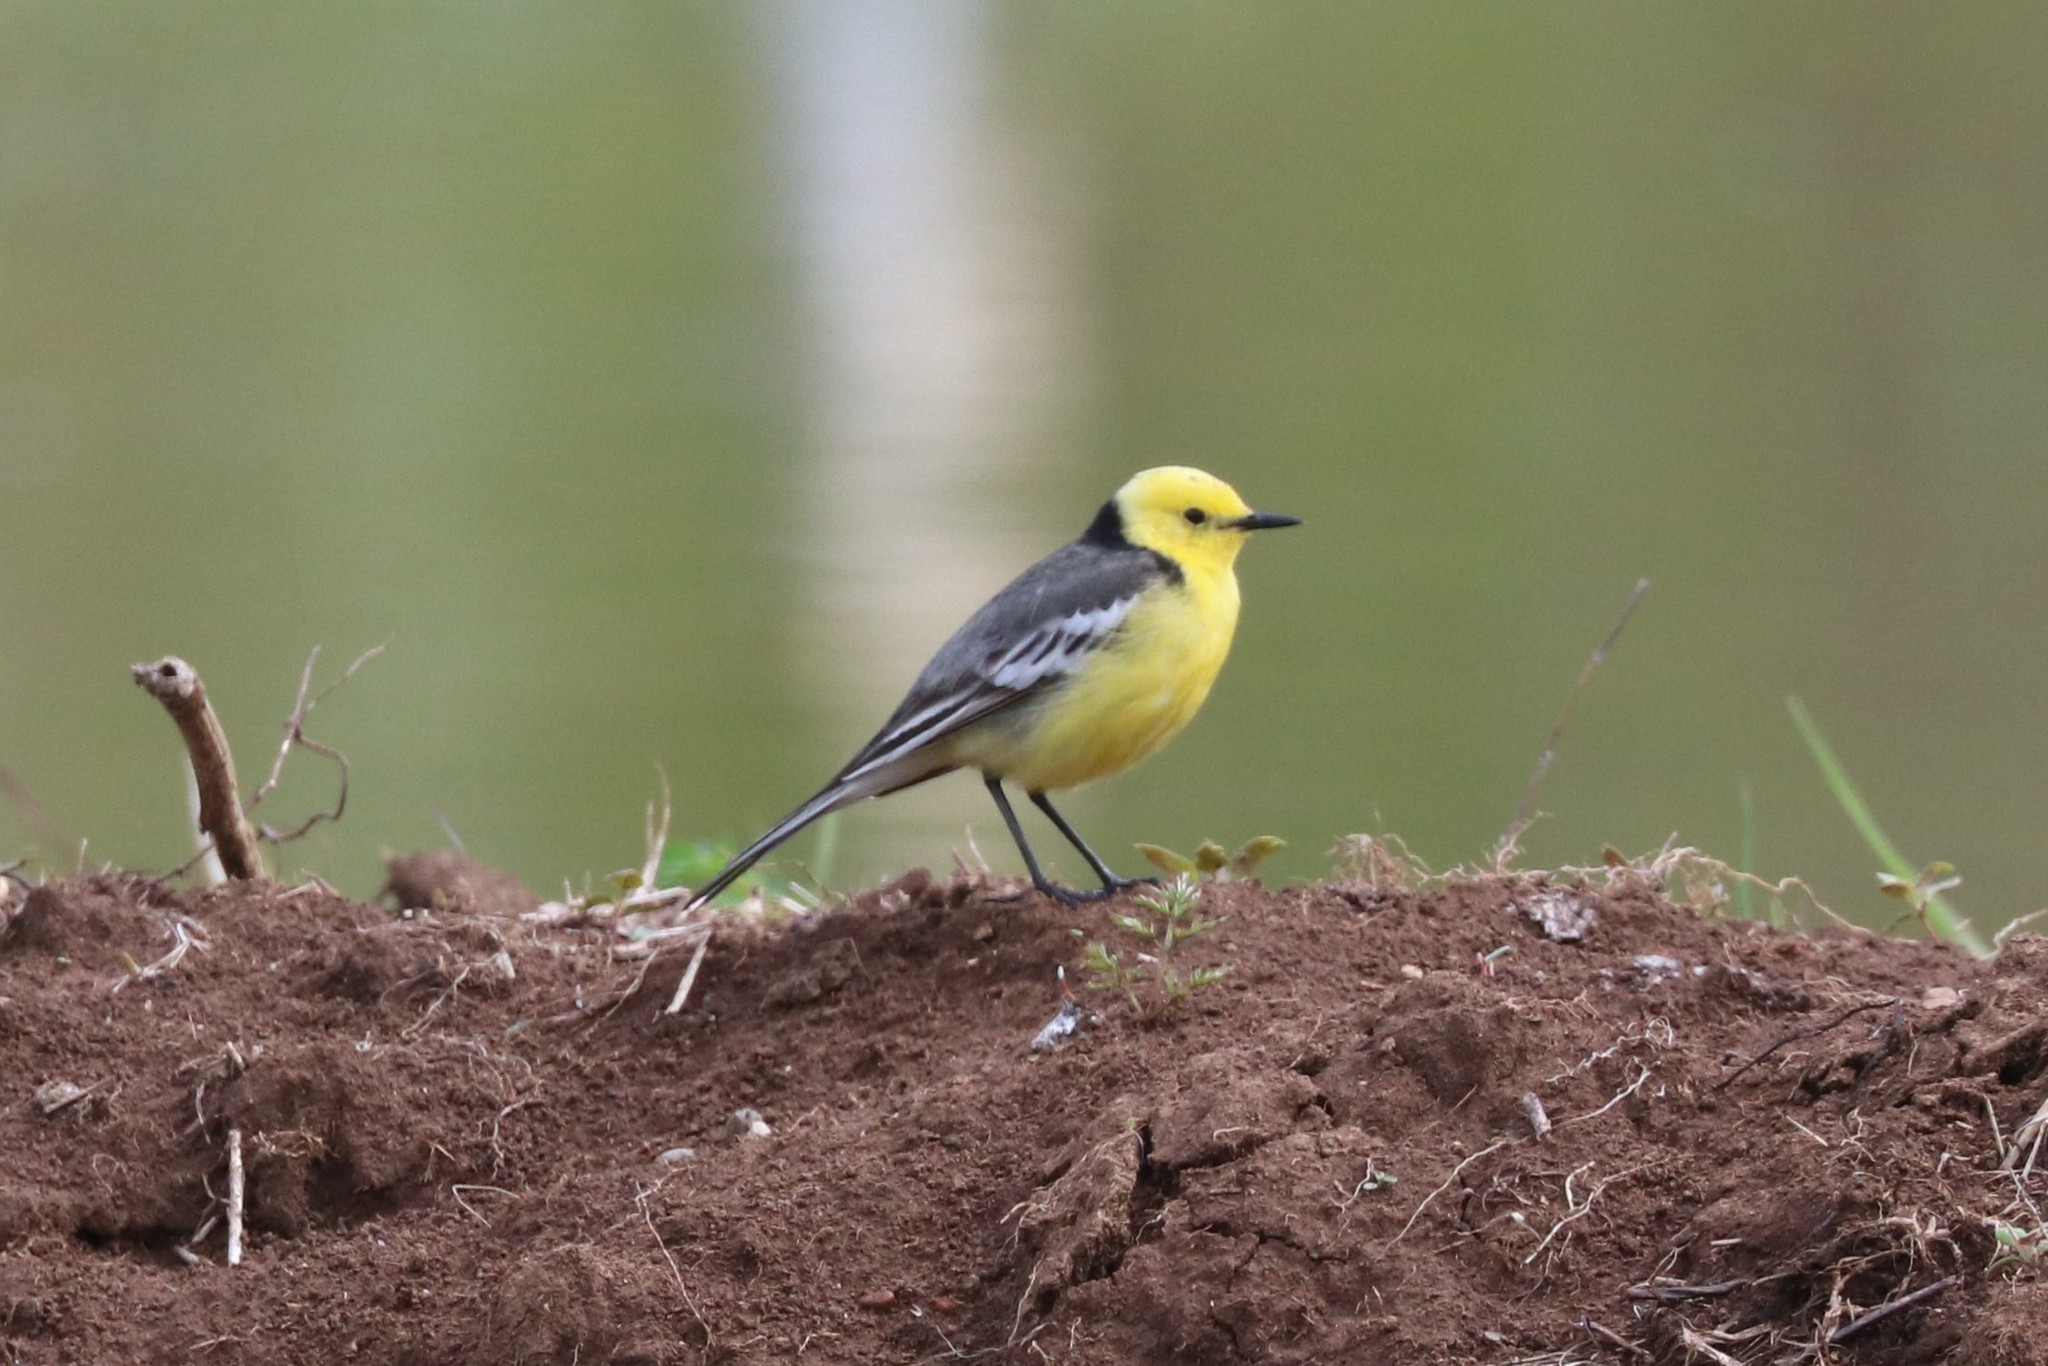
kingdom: Animalia
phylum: Chordata
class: Aves
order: Passeriformes
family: Motacillidae
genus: Motacilla
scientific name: Motacilla citreola
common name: Citrine wagtail
